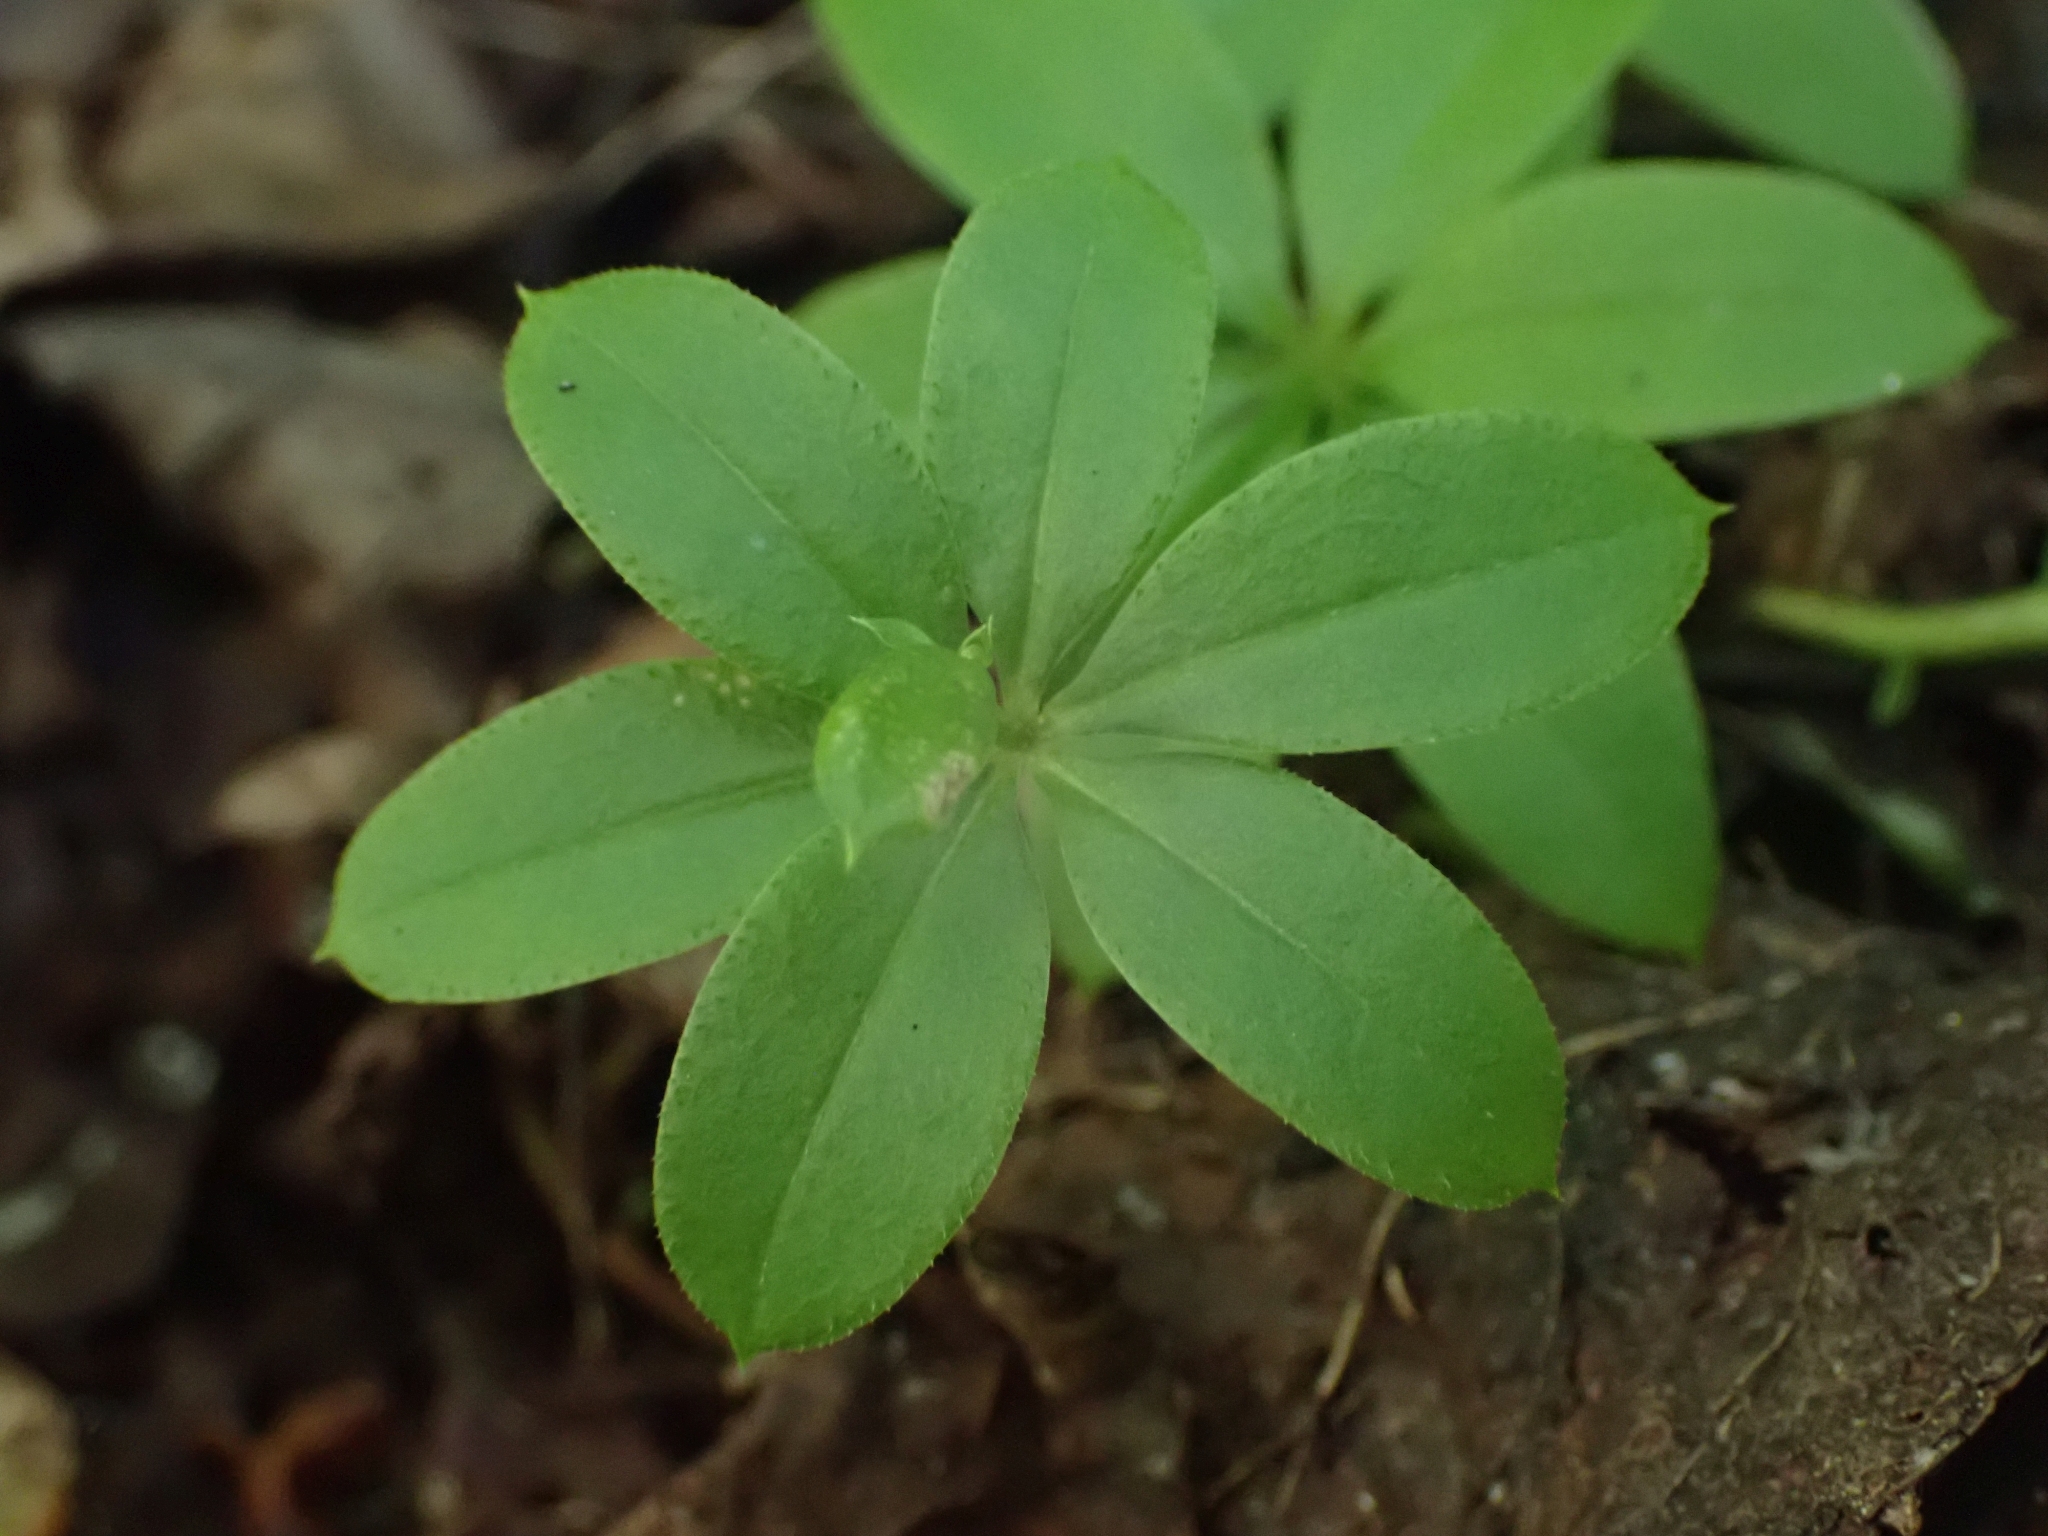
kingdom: Plantae
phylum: Tracheophyta
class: Magnoliopsida
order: Gentianales
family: Rubiaceae
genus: Galium
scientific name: Galium triflorum
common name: Fragrant bedstraw
